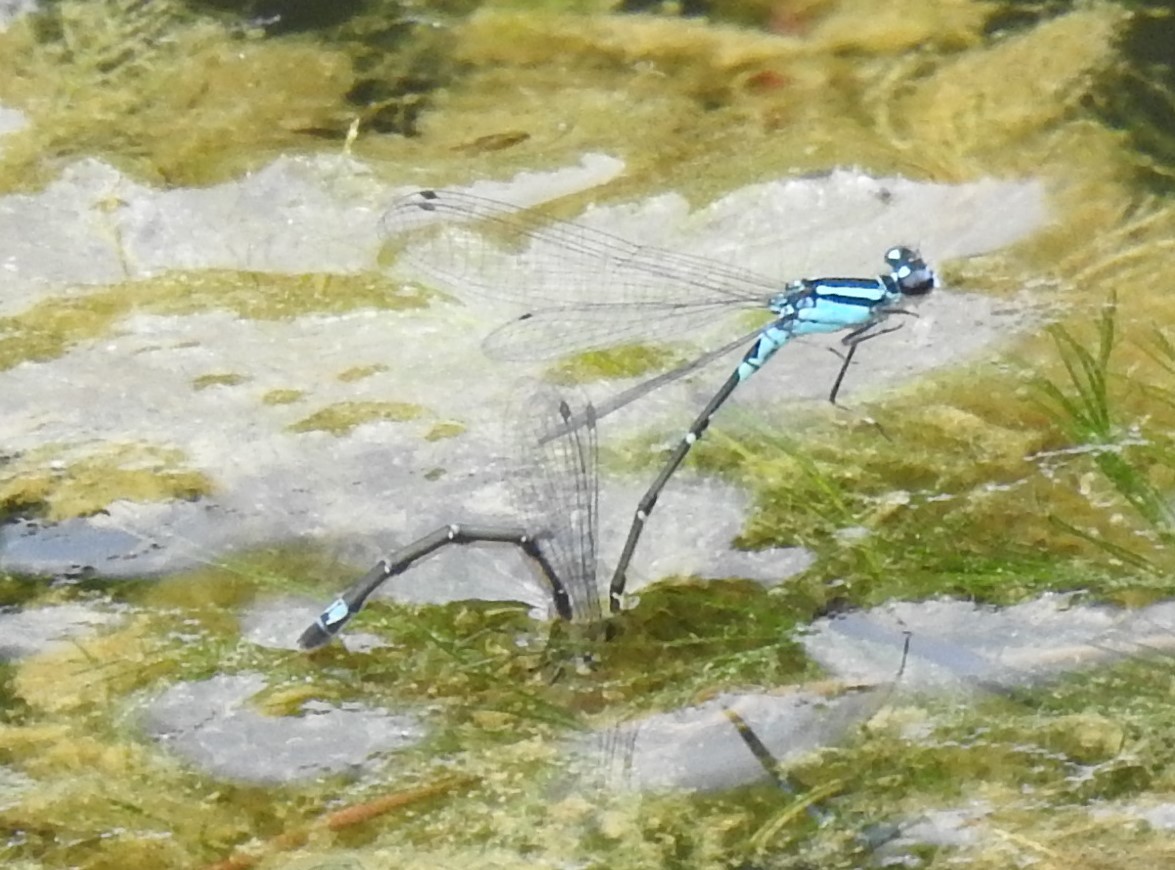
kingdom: Animalia
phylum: Arthropoda
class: Insecta
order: Odonata
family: Coenagrionidae
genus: Enallagma
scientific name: Enallagma geminatum
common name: Skimming bluet
